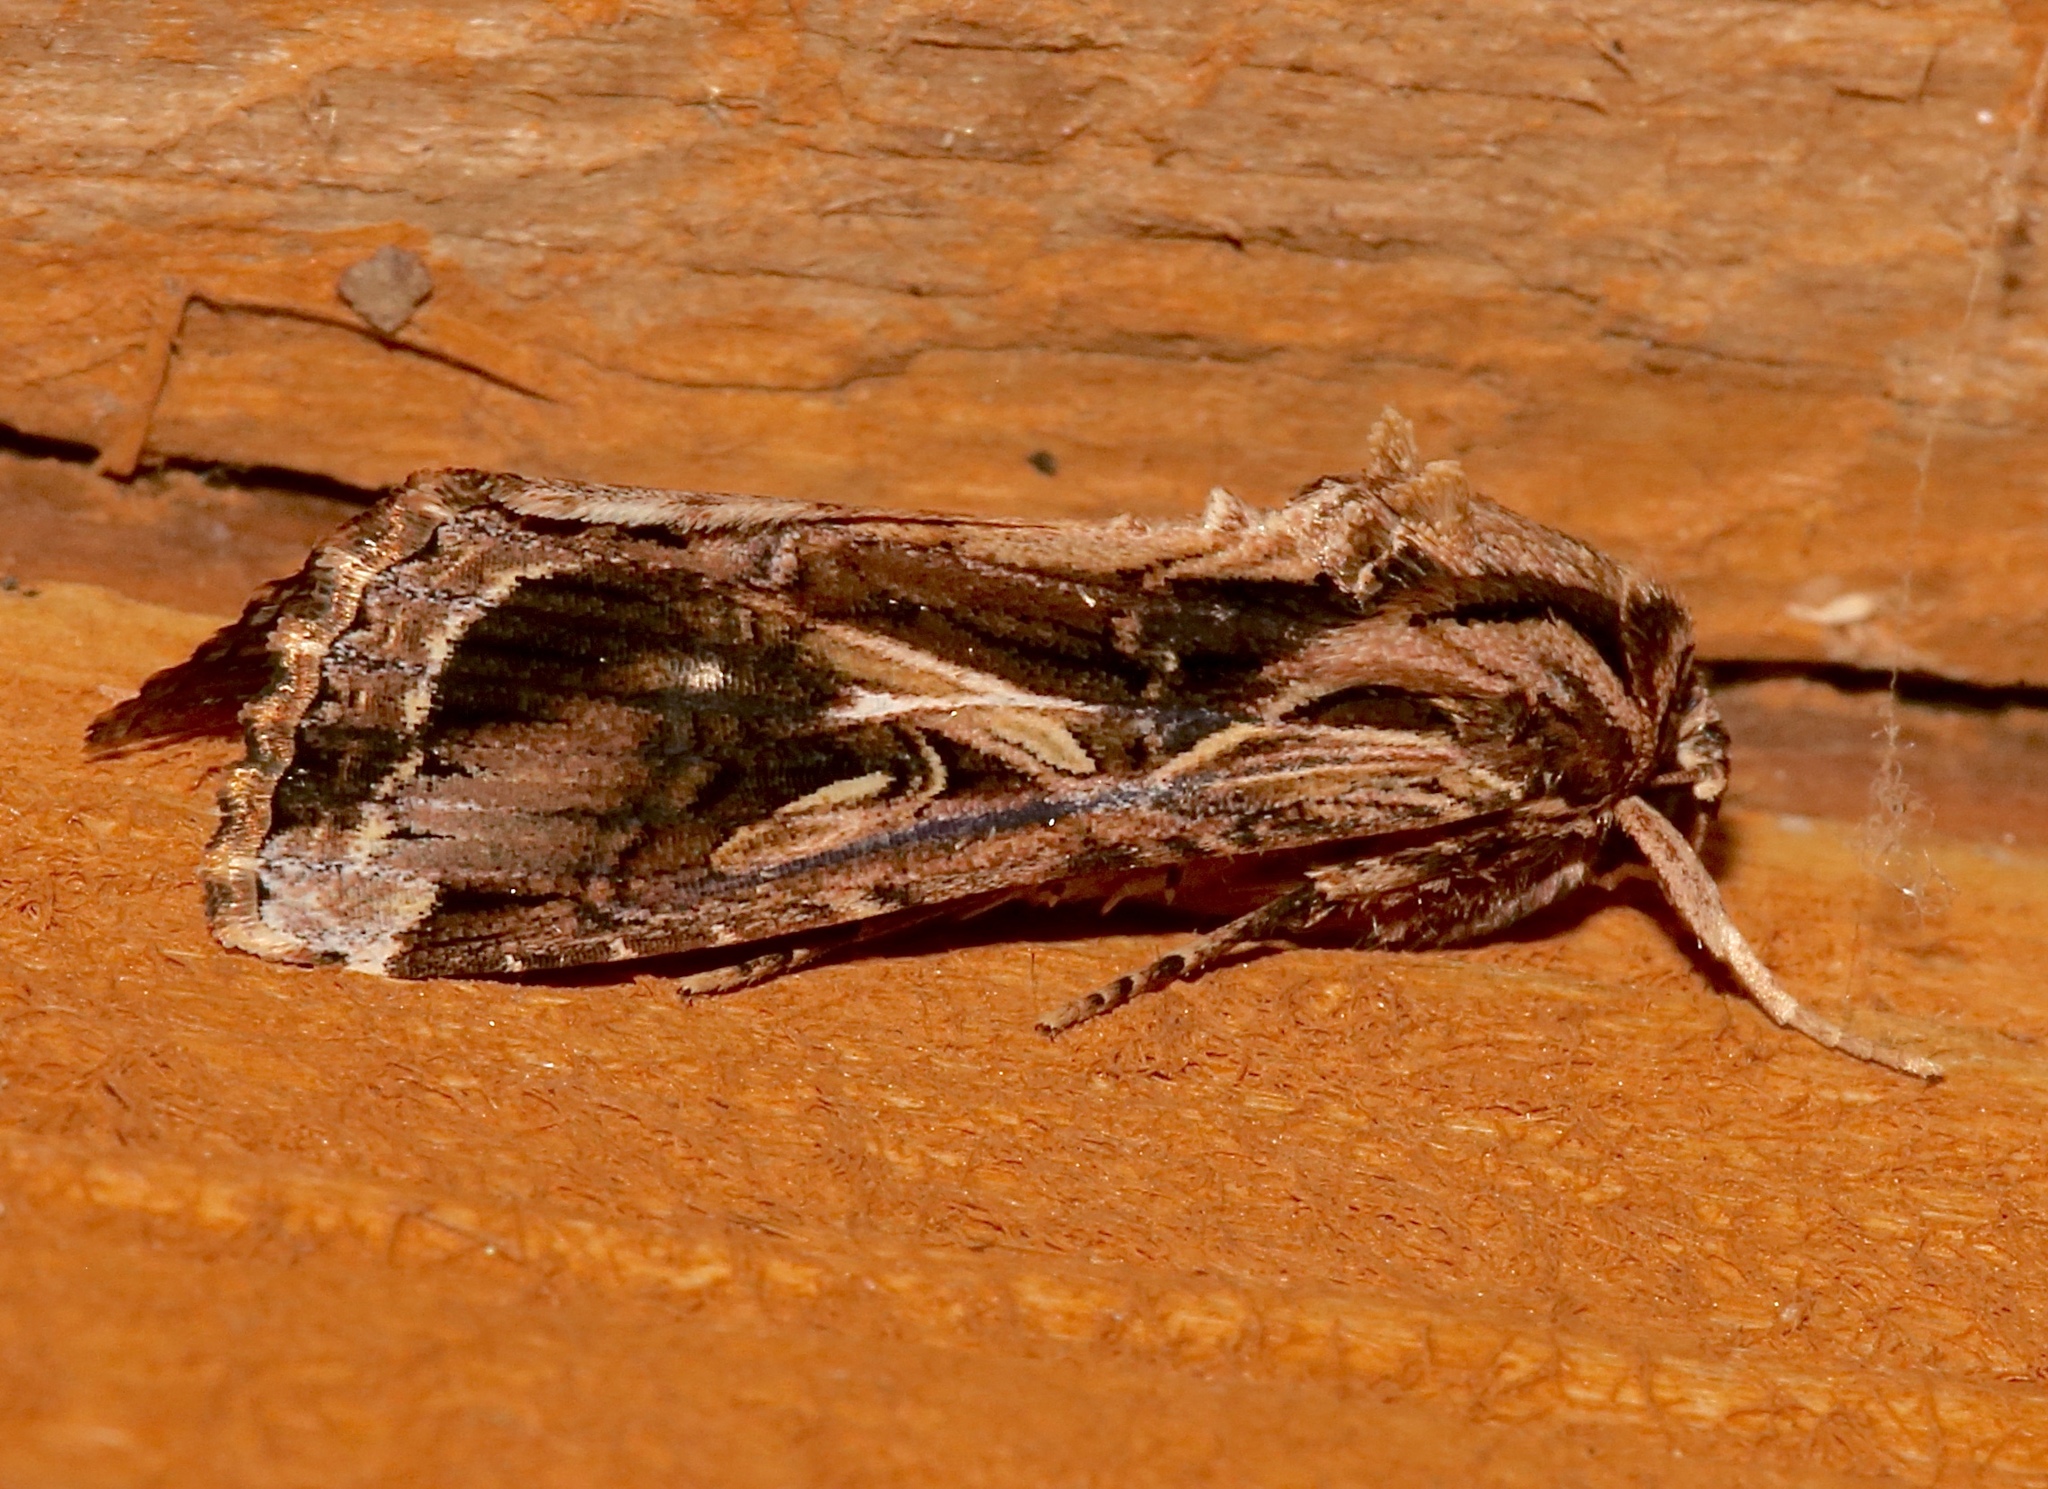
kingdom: Animalia
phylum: Arthropoda
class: Insecta
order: Lepidoptera
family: Noctuidae
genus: Spodoptera
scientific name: Spodoptera dolichos
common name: Sweetpotato armyworm
